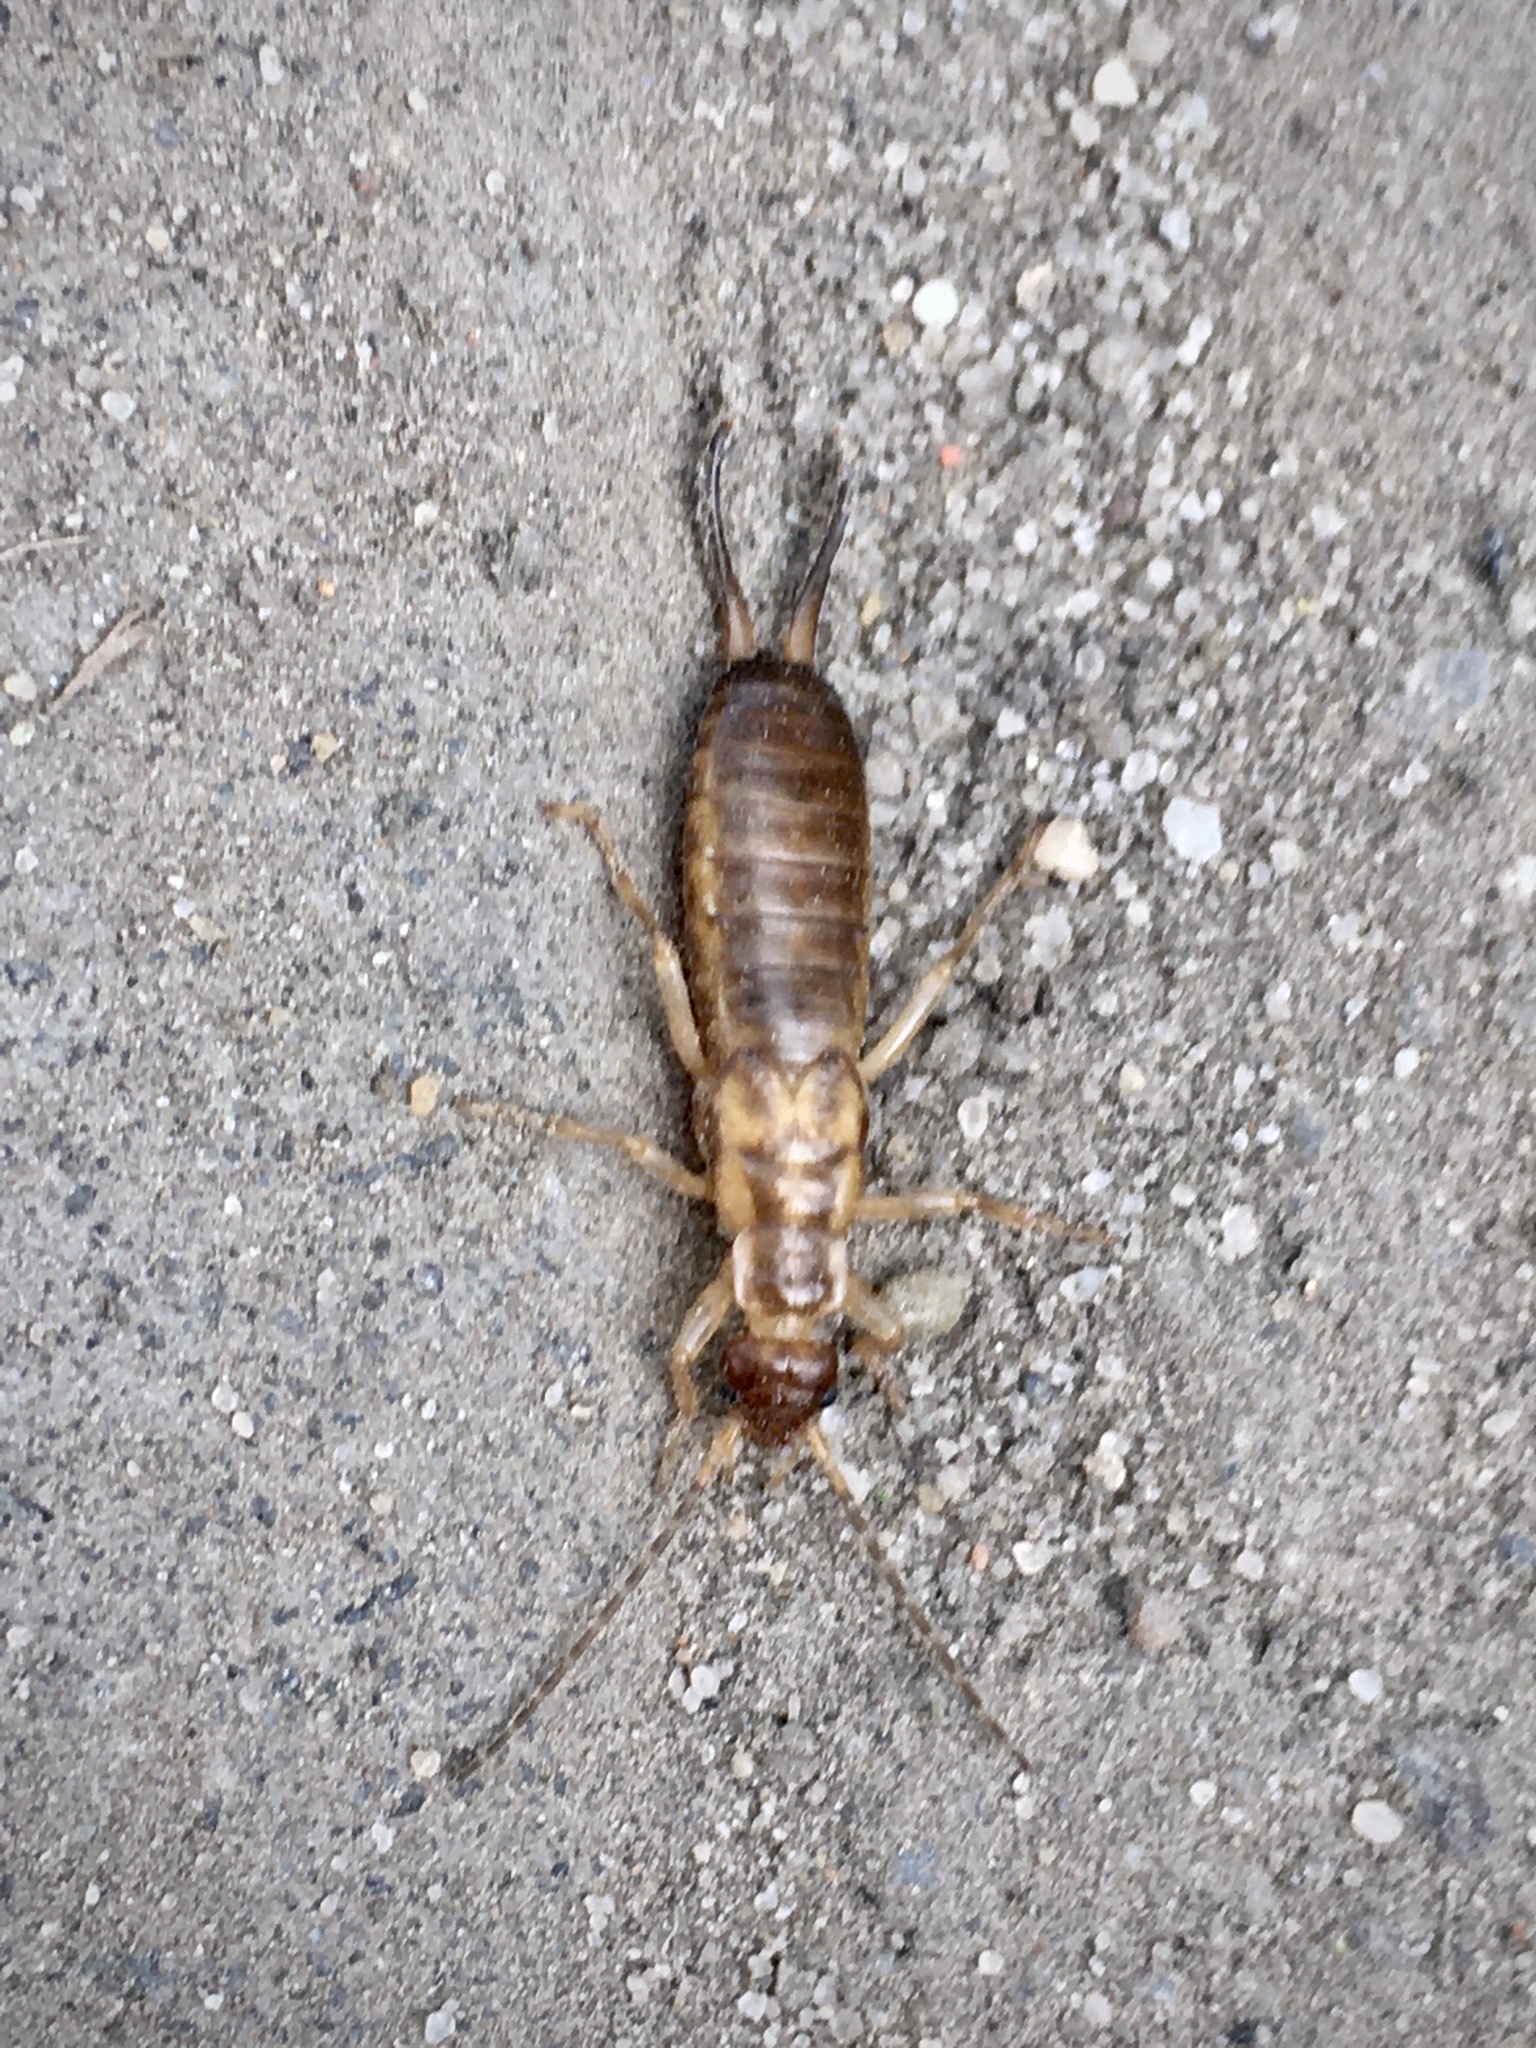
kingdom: Animalia
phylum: Arthropoda
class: Insecta
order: Dermaptera
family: Forficulidae
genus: Forficula
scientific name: Forficula
